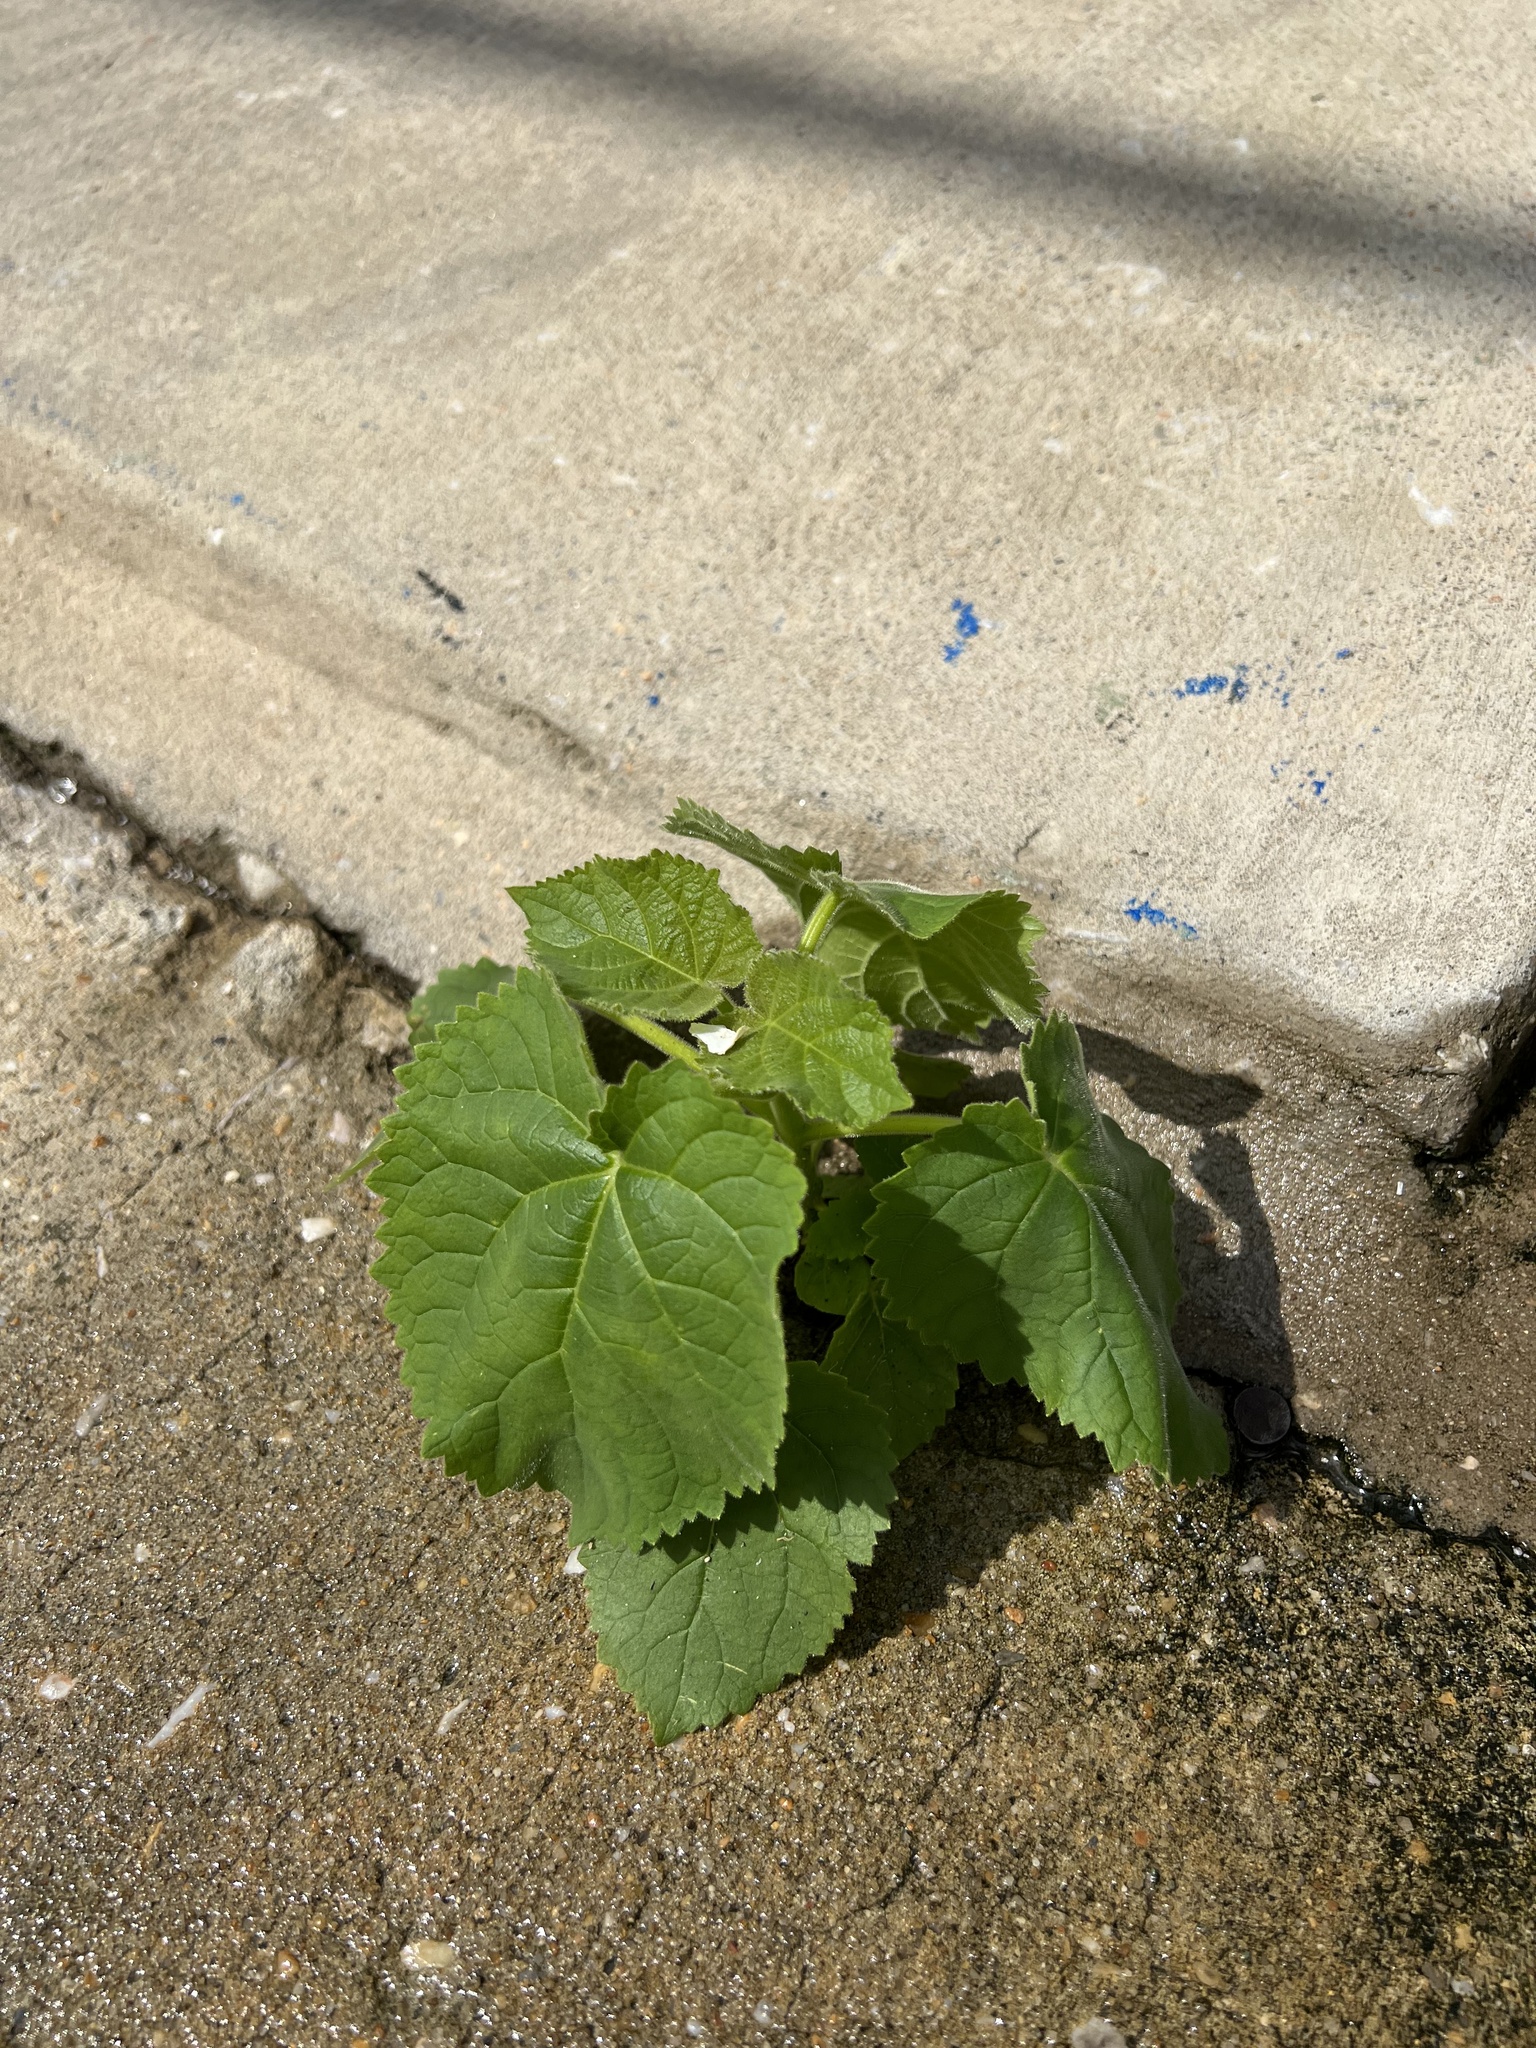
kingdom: Plantae
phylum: Tracheophyta
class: Magnoliopsida
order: Lamiales
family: Paulowniaceae
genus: Paulownia
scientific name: Paulownia tomentosa
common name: Foxglove-tree
